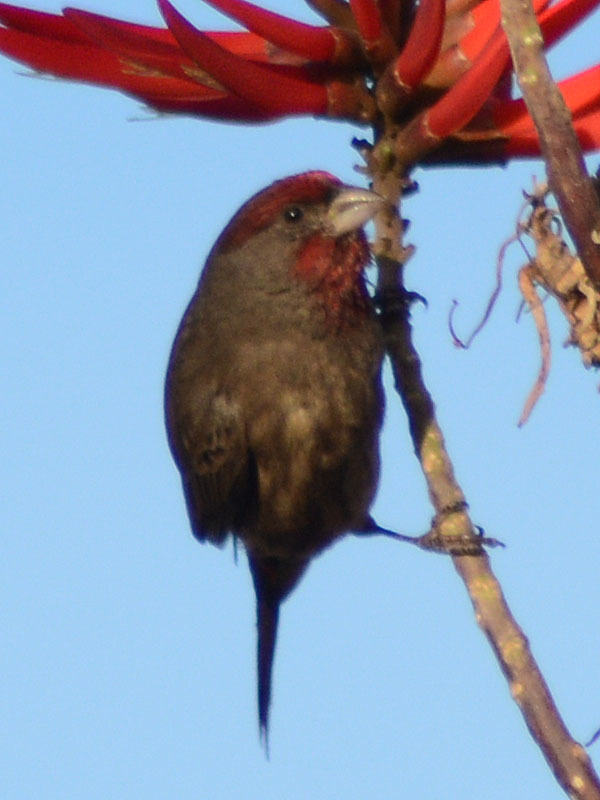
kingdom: Animalia
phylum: Chordata
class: Aves
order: Passeriformes
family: Fringillidae
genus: Haemorhous
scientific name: Haemorhous mexicanus
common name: House finch
